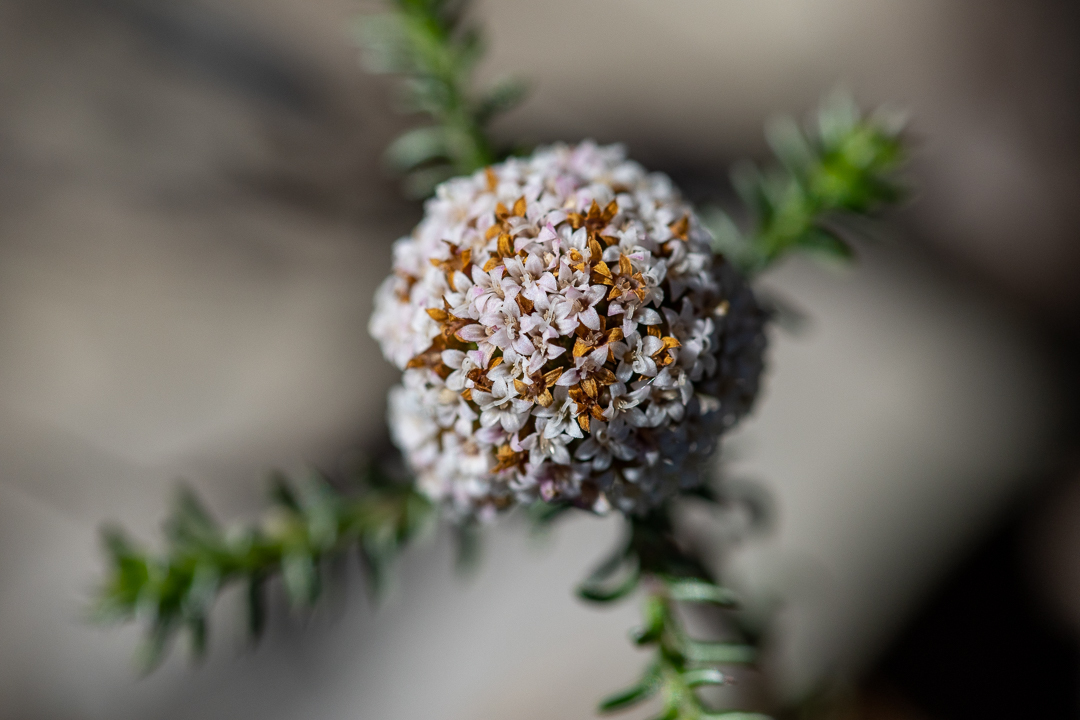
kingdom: Plantae
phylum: Tracheophyta
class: Magnoliopsida
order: Asterales
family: Asteraceae
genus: Stoebe
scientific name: Stoebe capitata
